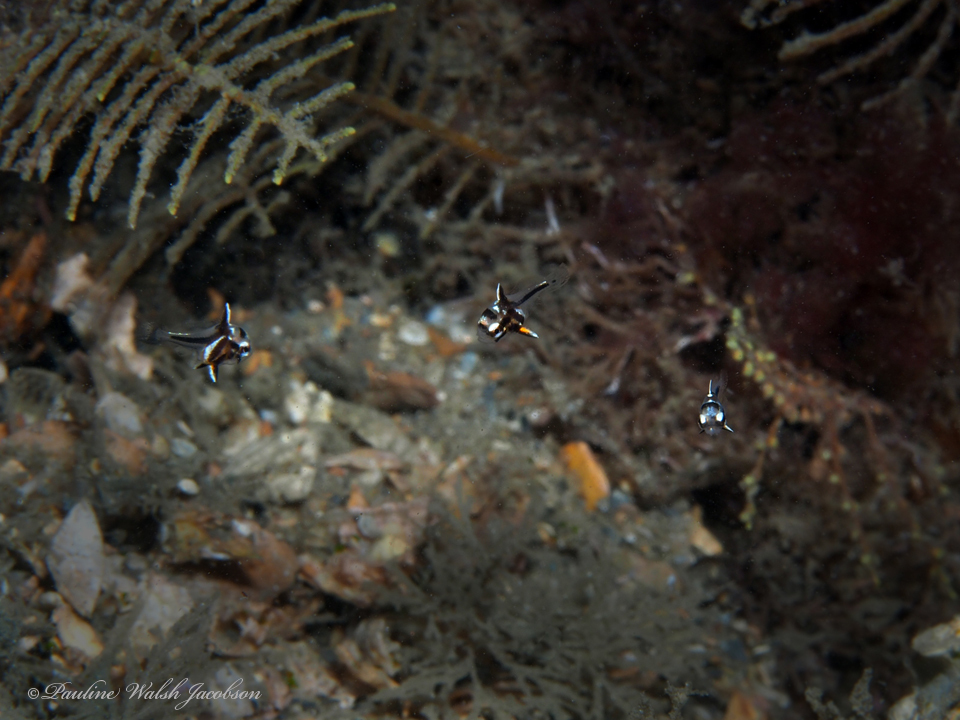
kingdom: Animalia
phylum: Chordata
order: Perciformes
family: Sciaenidae
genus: Pareques
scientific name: Pareques acuminatus
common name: High-hat
